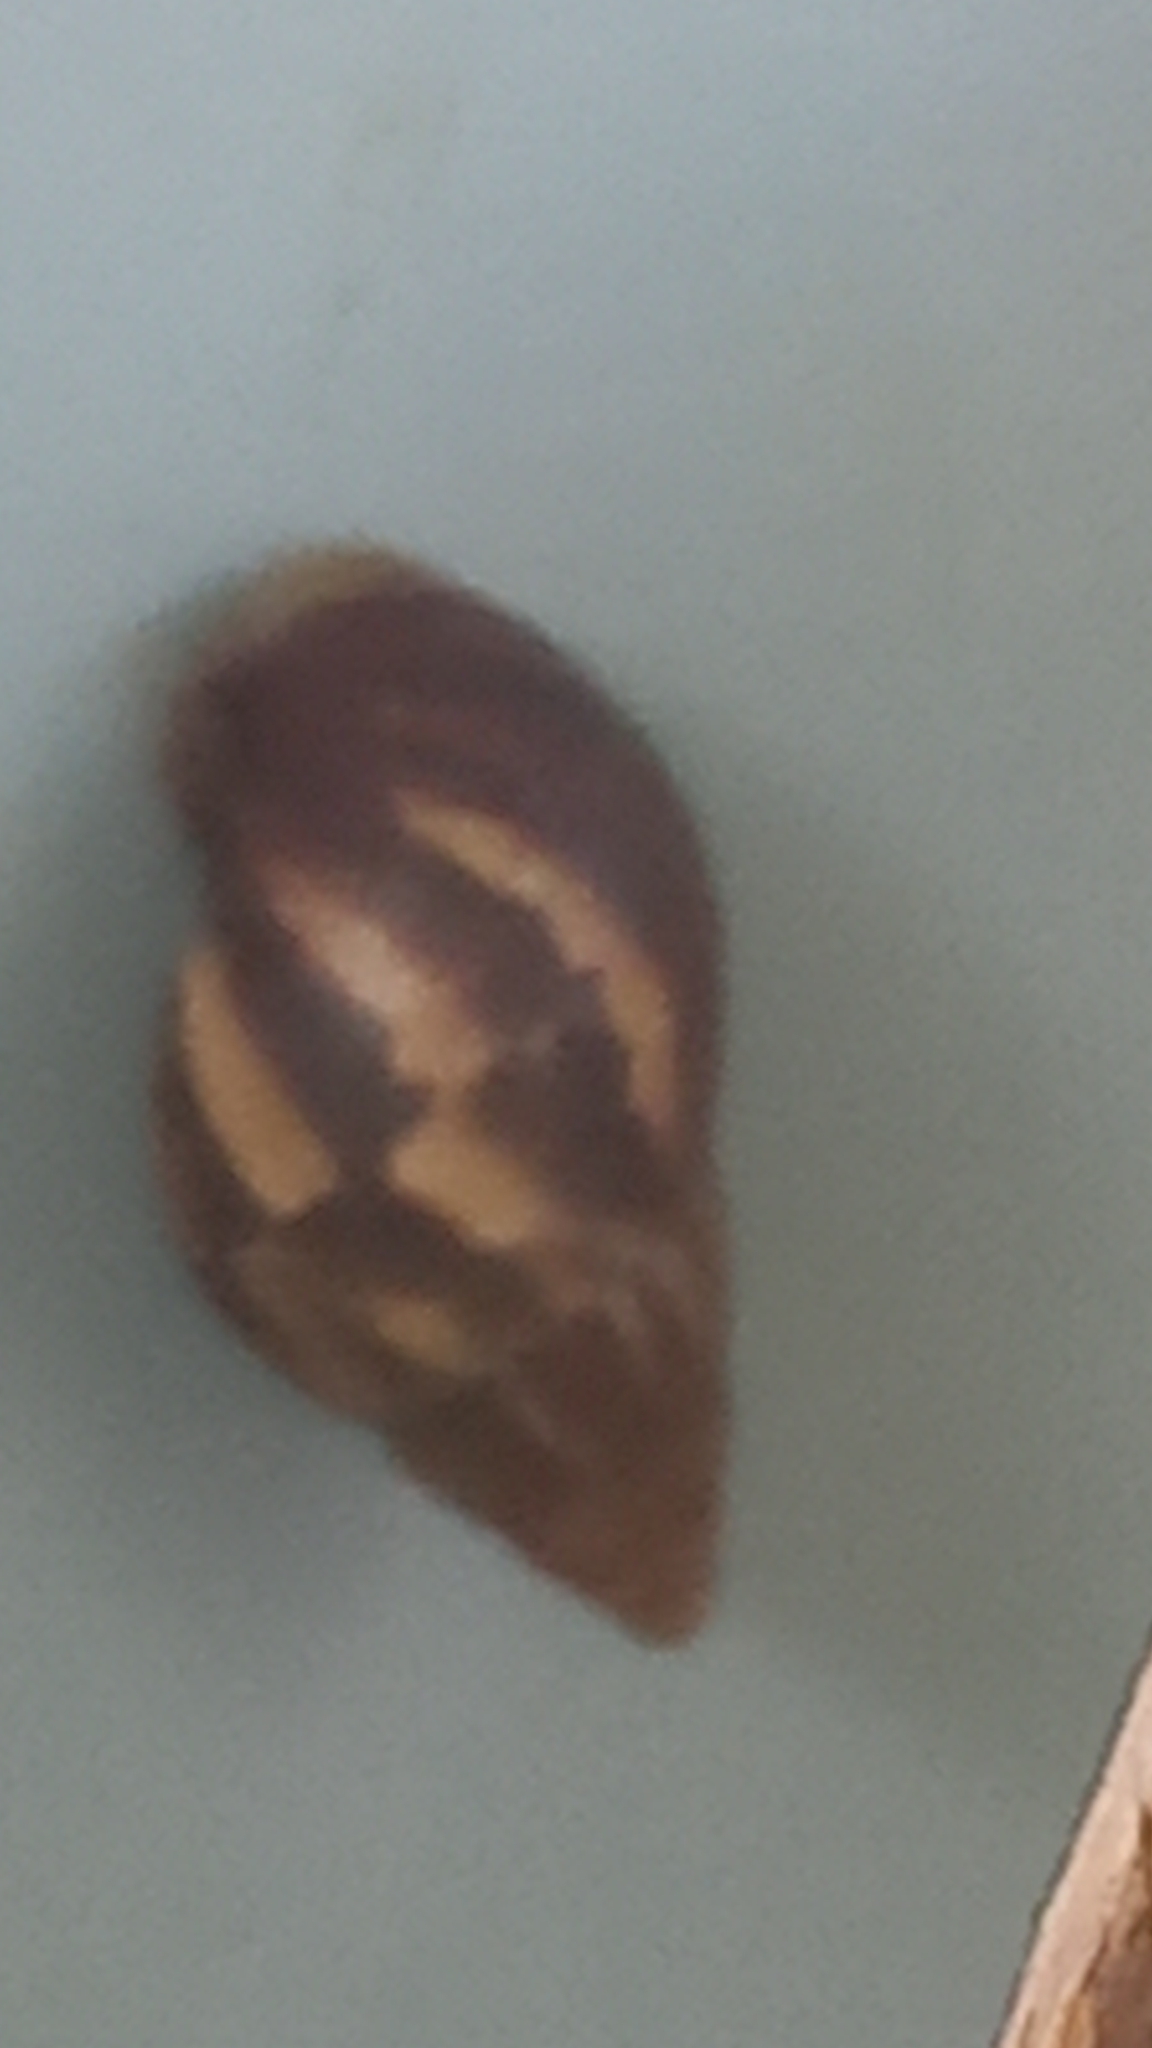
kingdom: Animalia
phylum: Mollusca
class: Gastropoda
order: Stylommatophora
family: Achatinidae
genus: Lissachatina
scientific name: Lissachatina fulica
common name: Giant african snail
